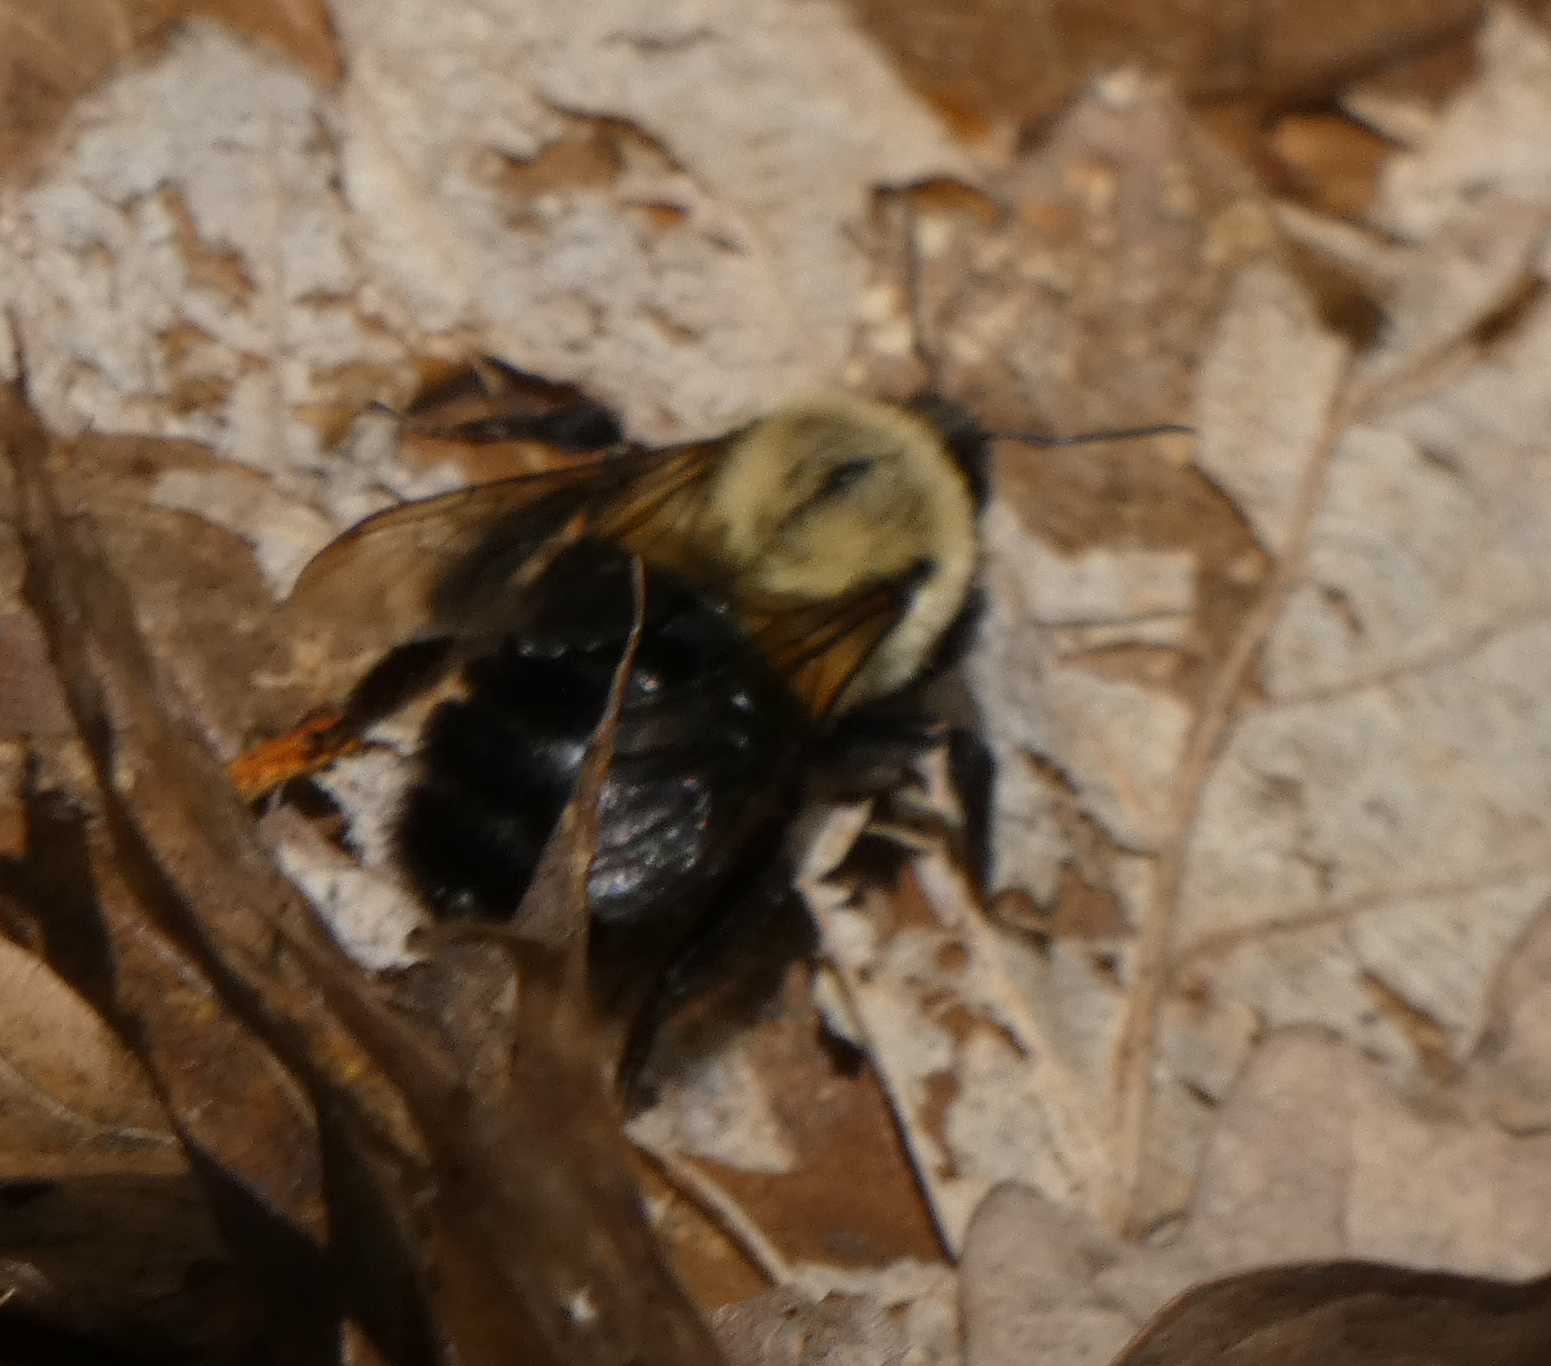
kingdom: Animalia
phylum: Arthropoda
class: Insecta
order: Hymenoptera
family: Apidae
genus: Bombus
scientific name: Bombus impatiens
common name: Common eastern bumble bee
